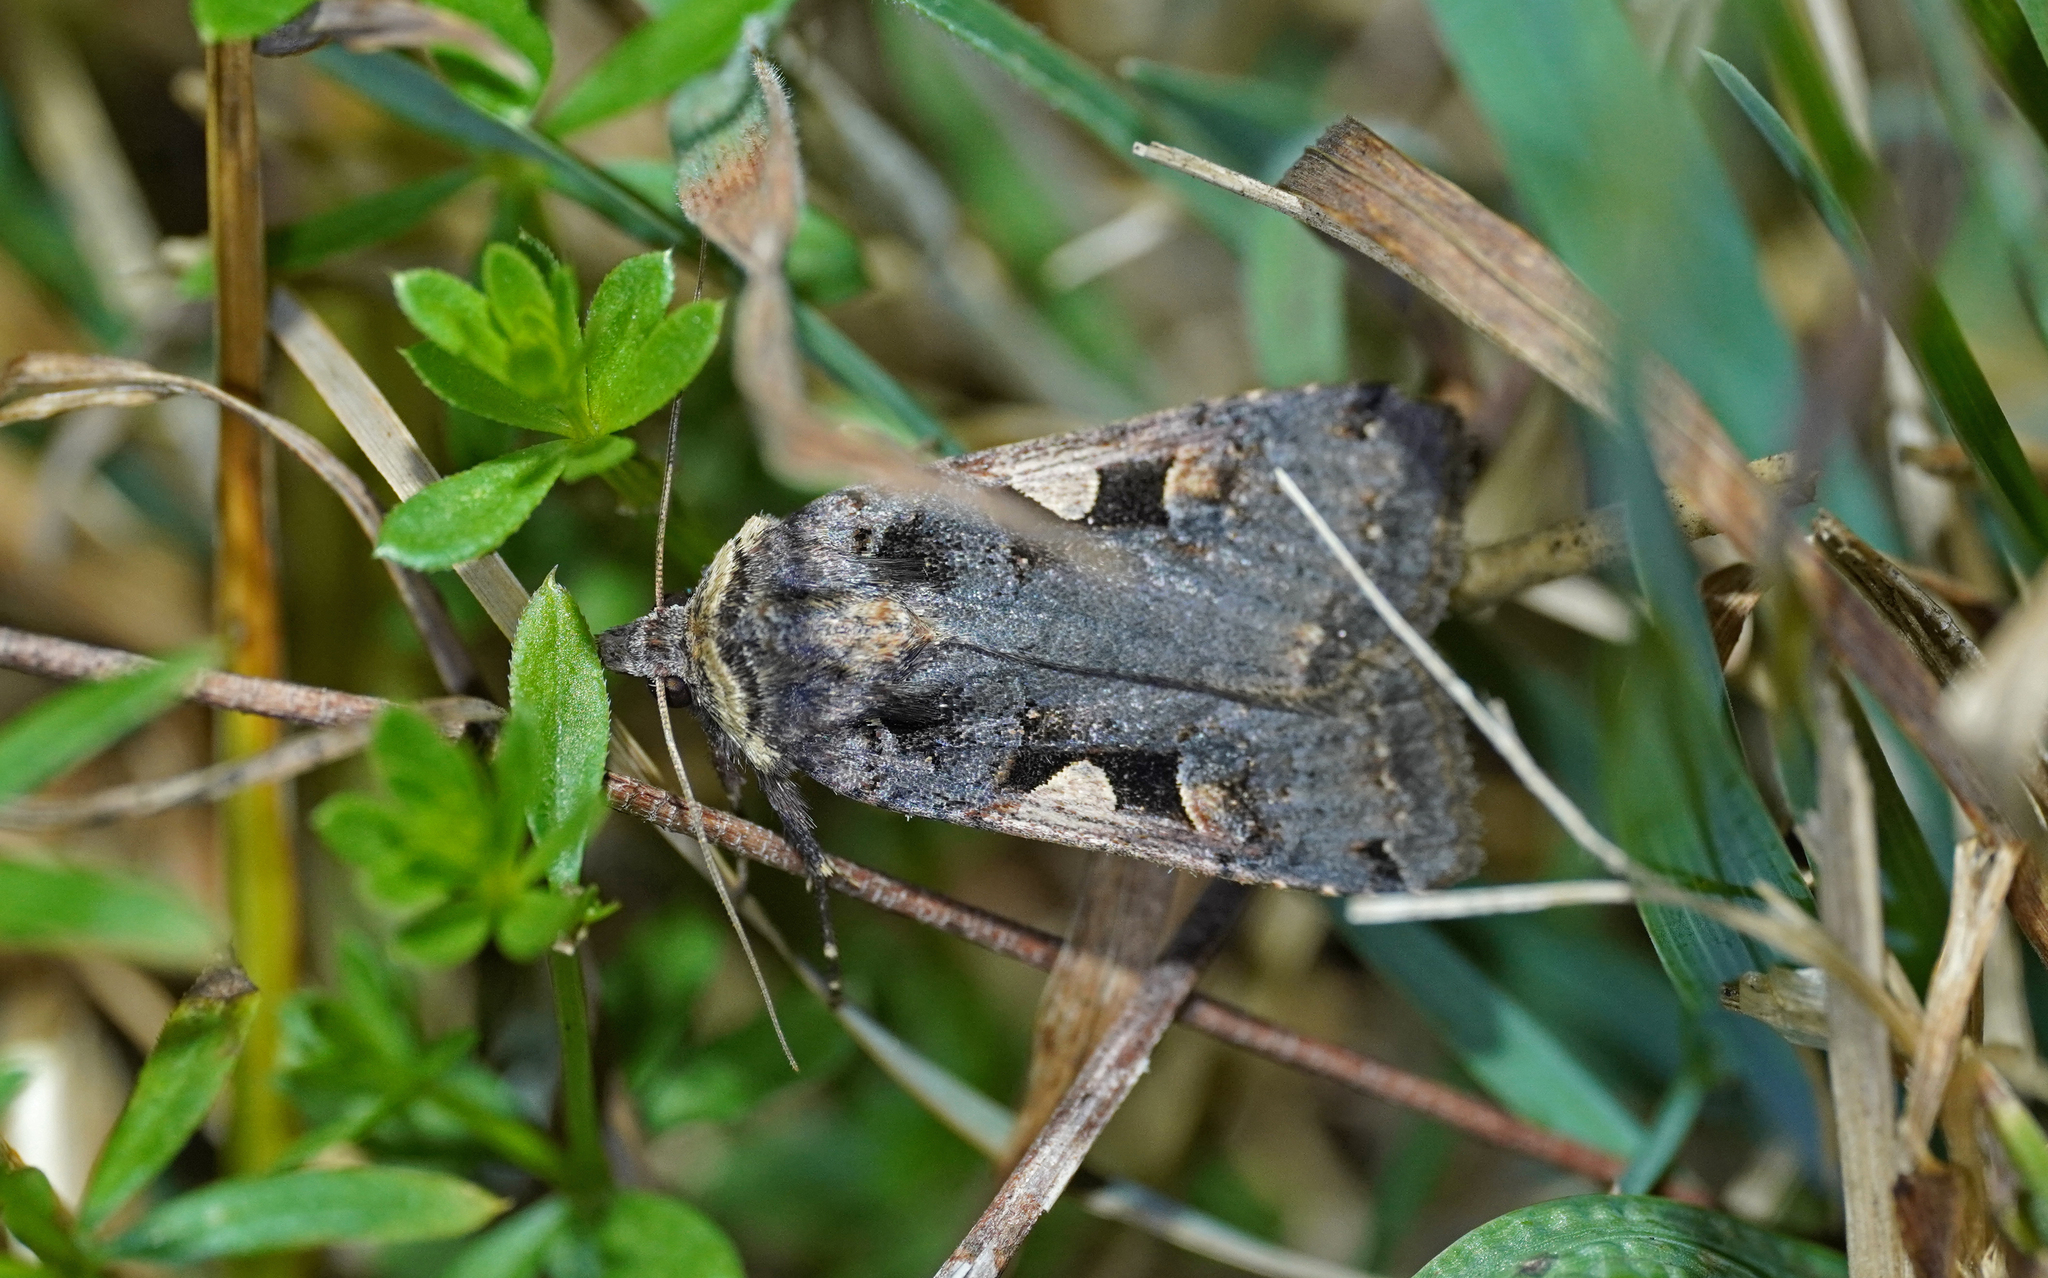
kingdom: Animalia
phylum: Arthropoda
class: Insecta
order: Lepidoptera
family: Noctuidae
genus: Xestia
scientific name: Xestia c-nigrum
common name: Setaceous hebrew character
